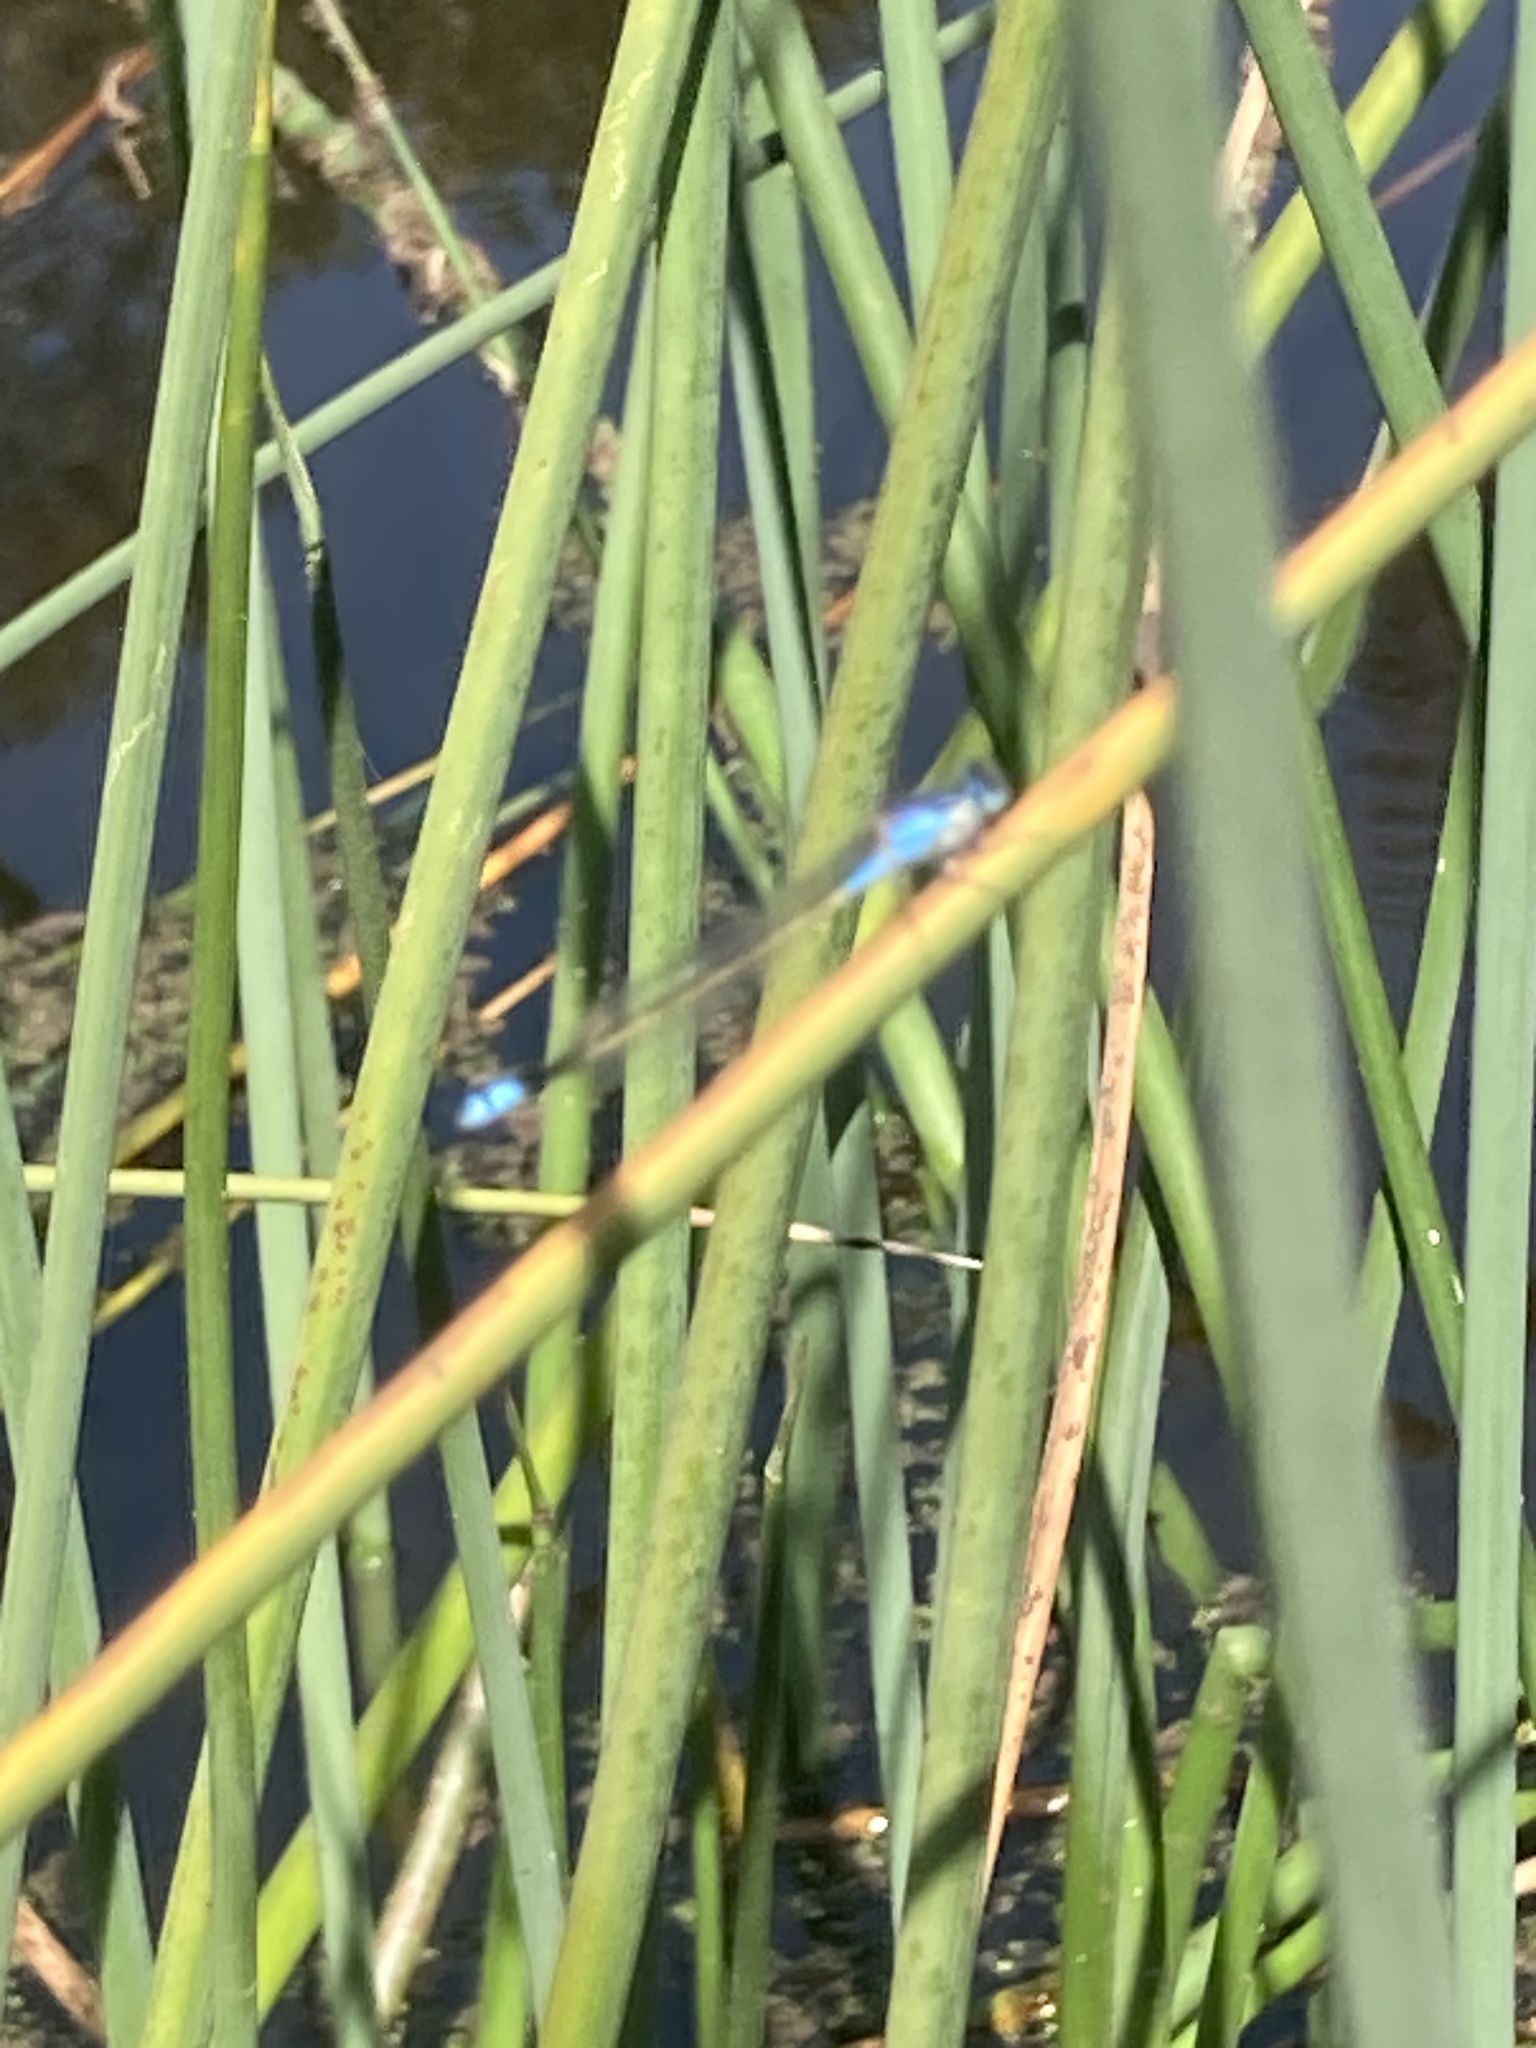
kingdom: Animalia
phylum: Arthropoda
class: Insecta
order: Odonata
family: Coenagrionidae
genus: Ischnura
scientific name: Ischnura heterosticta
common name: Common bluetail
